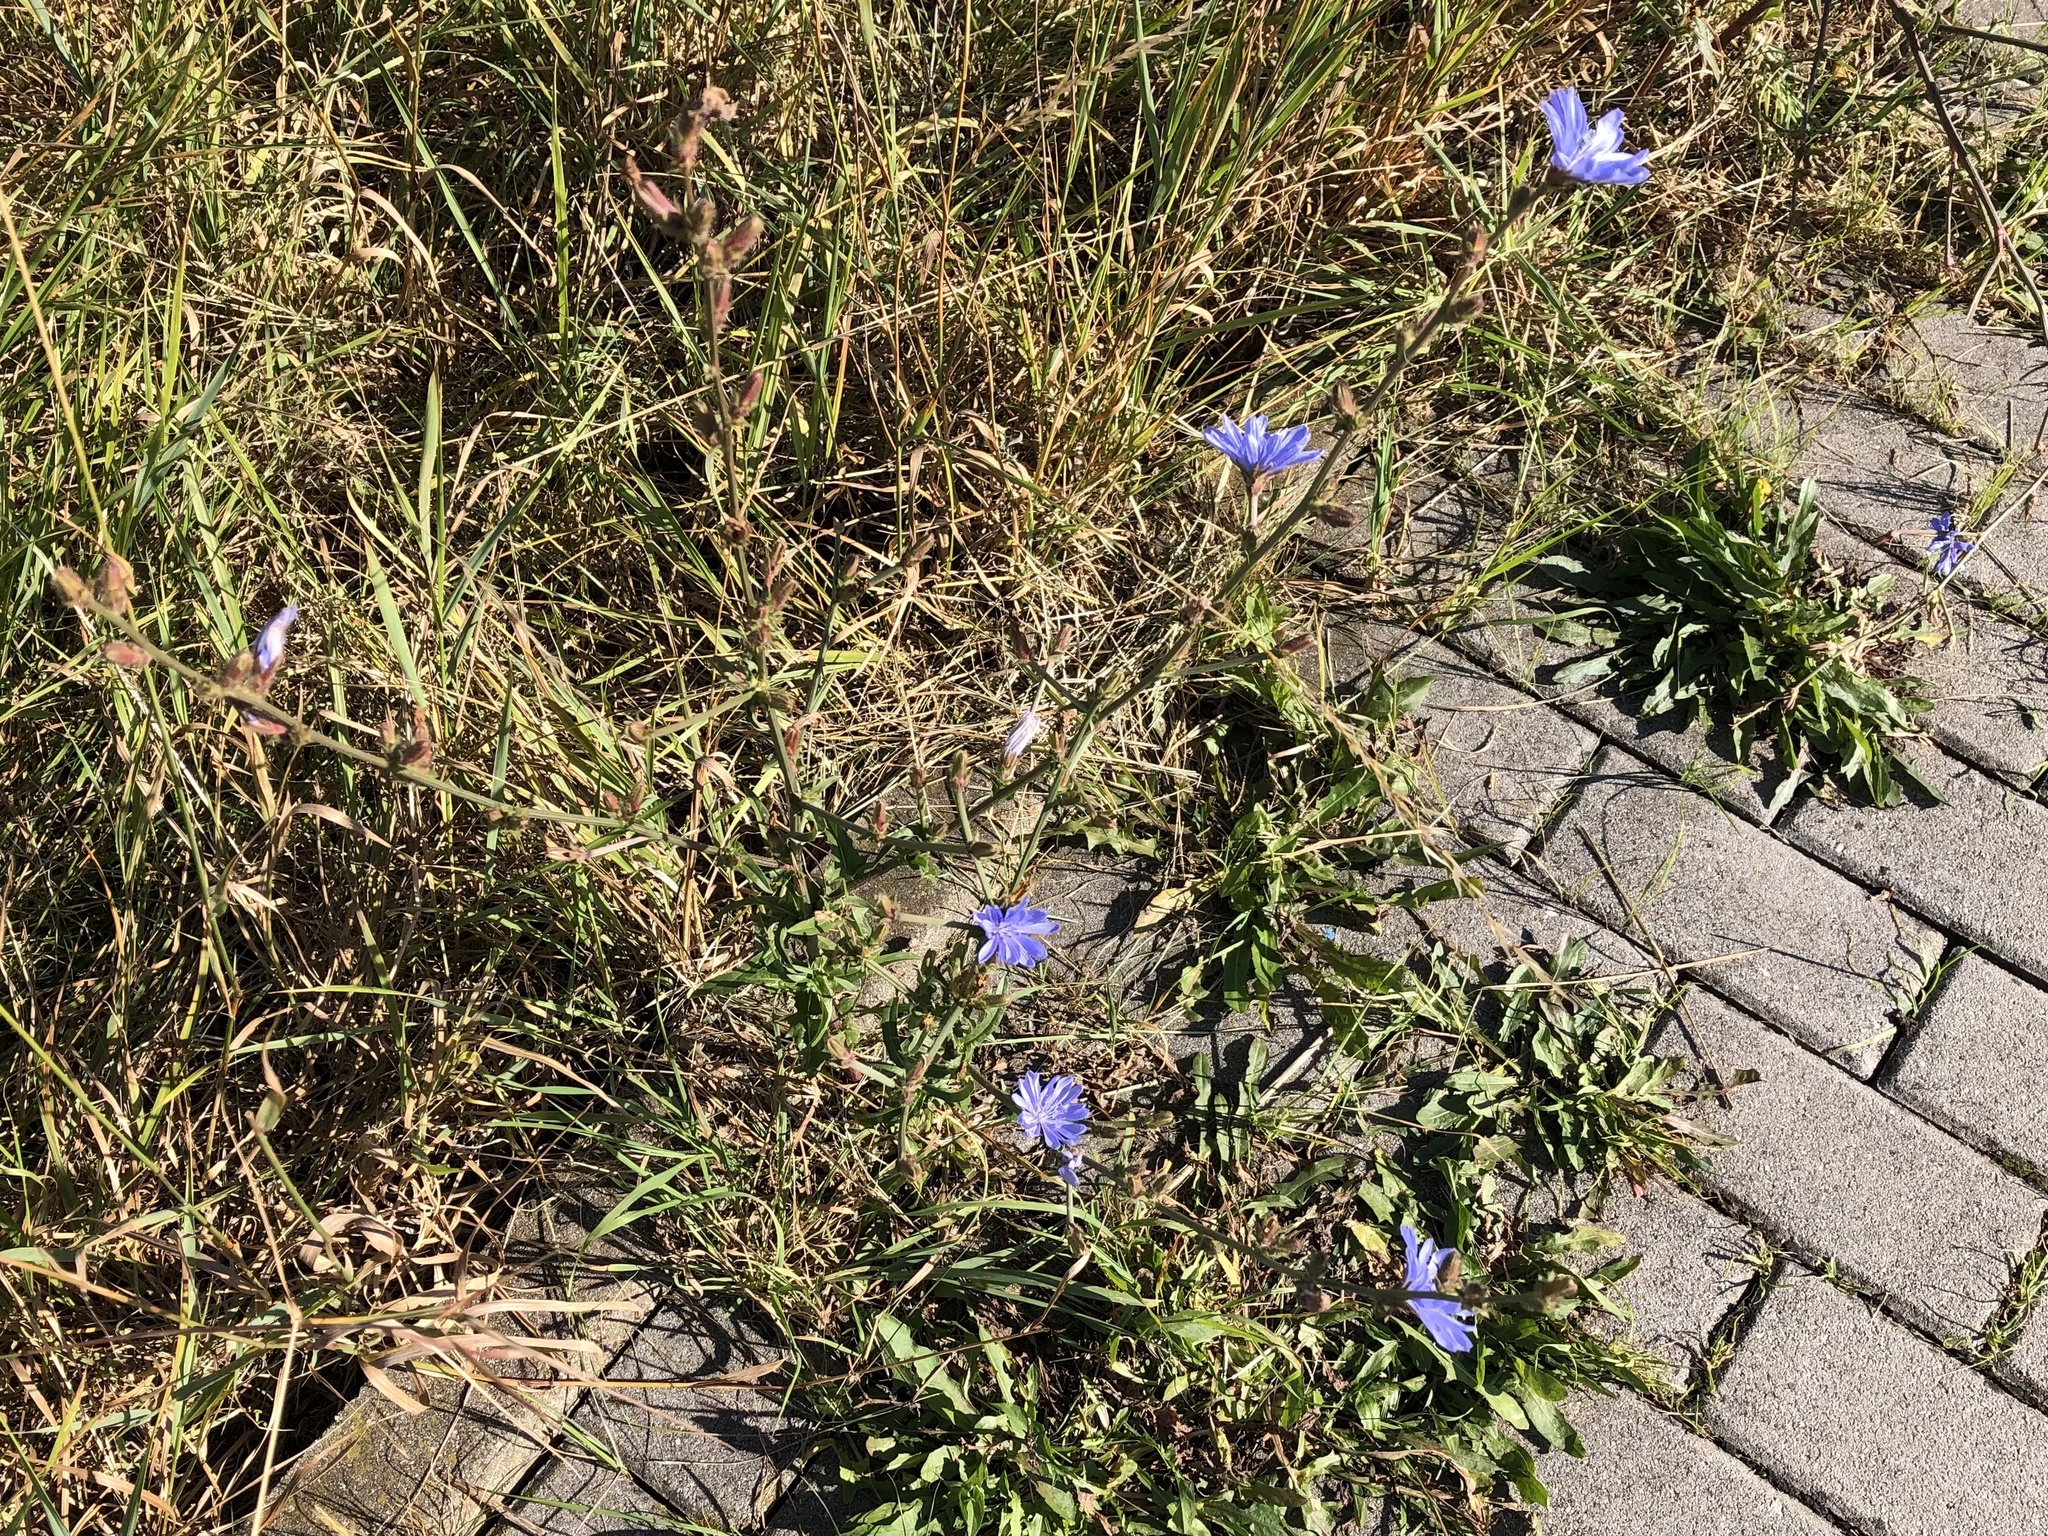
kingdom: Plantae
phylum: Tracheophyta
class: Magnoliopsida
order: Asterales
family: Asteraceae
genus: Cichorium
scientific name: Cichorium intybus
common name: Chicory
